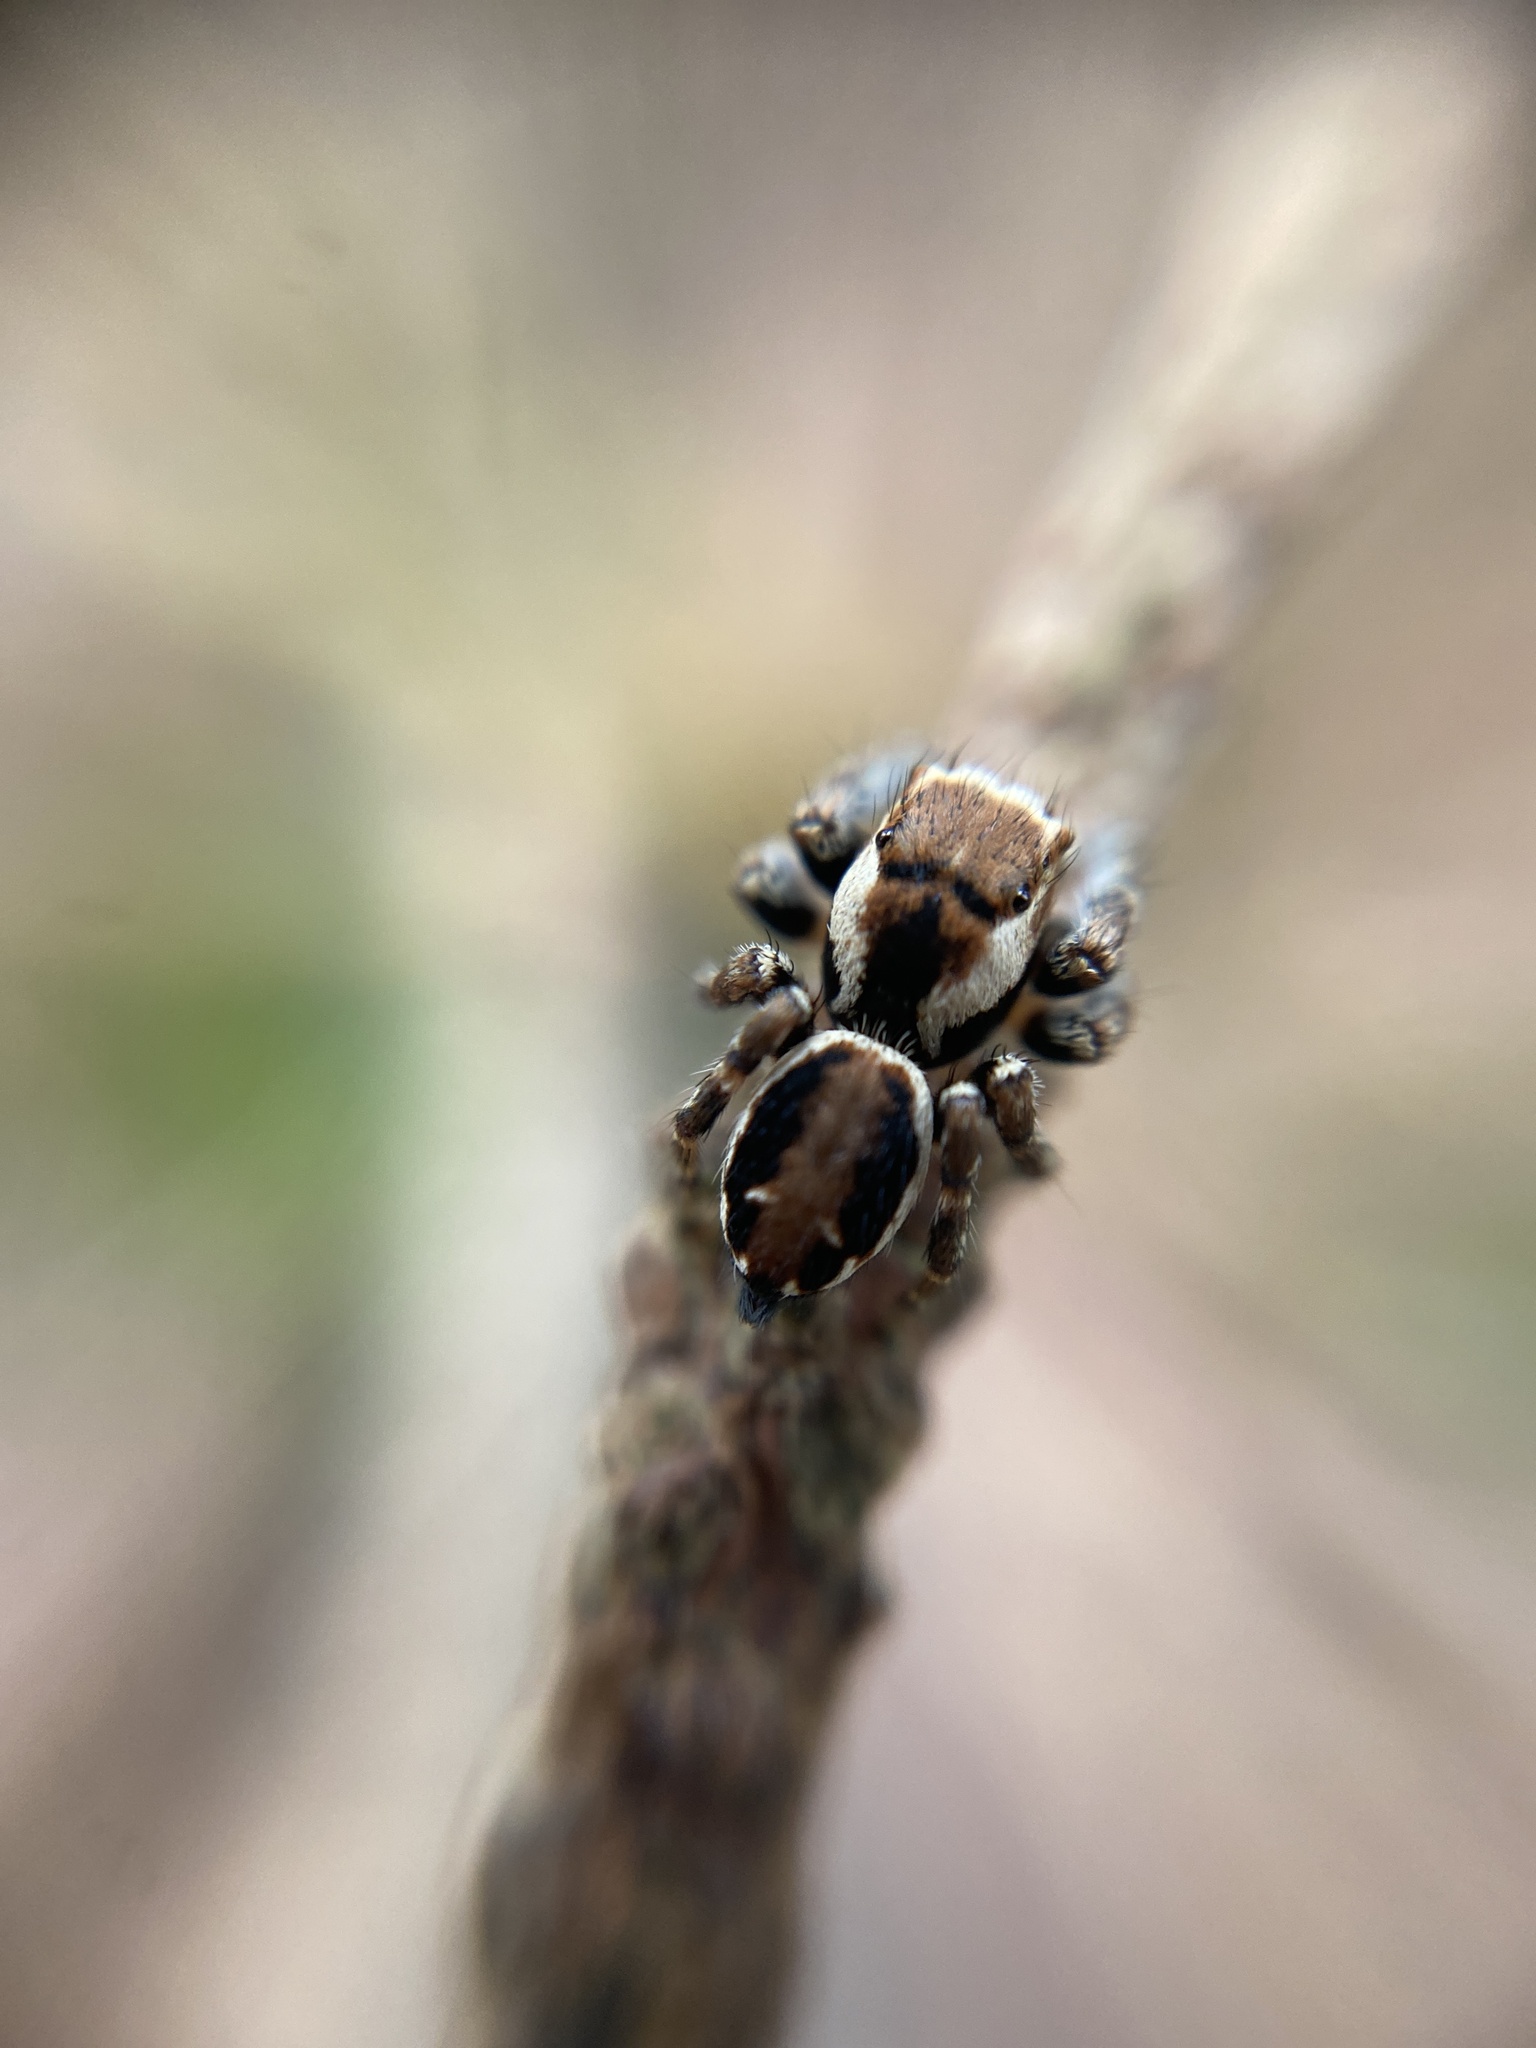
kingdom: Animalia
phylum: Arthropoda
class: Arachnida
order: Araneae
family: Salticidae
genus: Evarcha
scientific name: Evarcha falcata
